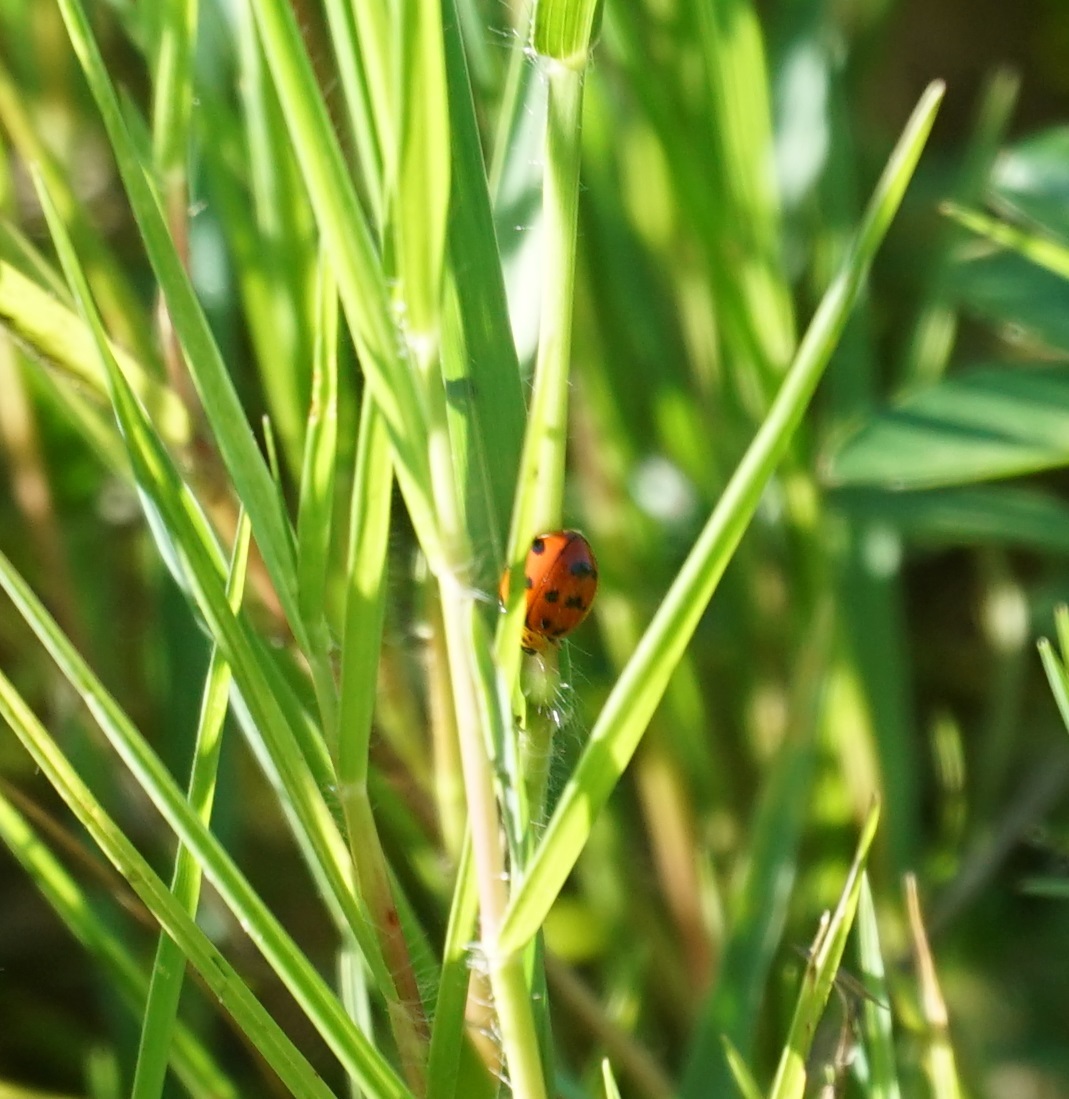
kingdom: Animalia
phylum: Arthropoda
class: Insecta
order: Coleoptera
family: Coccinellidae
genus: Harmonia
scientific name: Harmonia octomaculata
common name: Lady beetle
